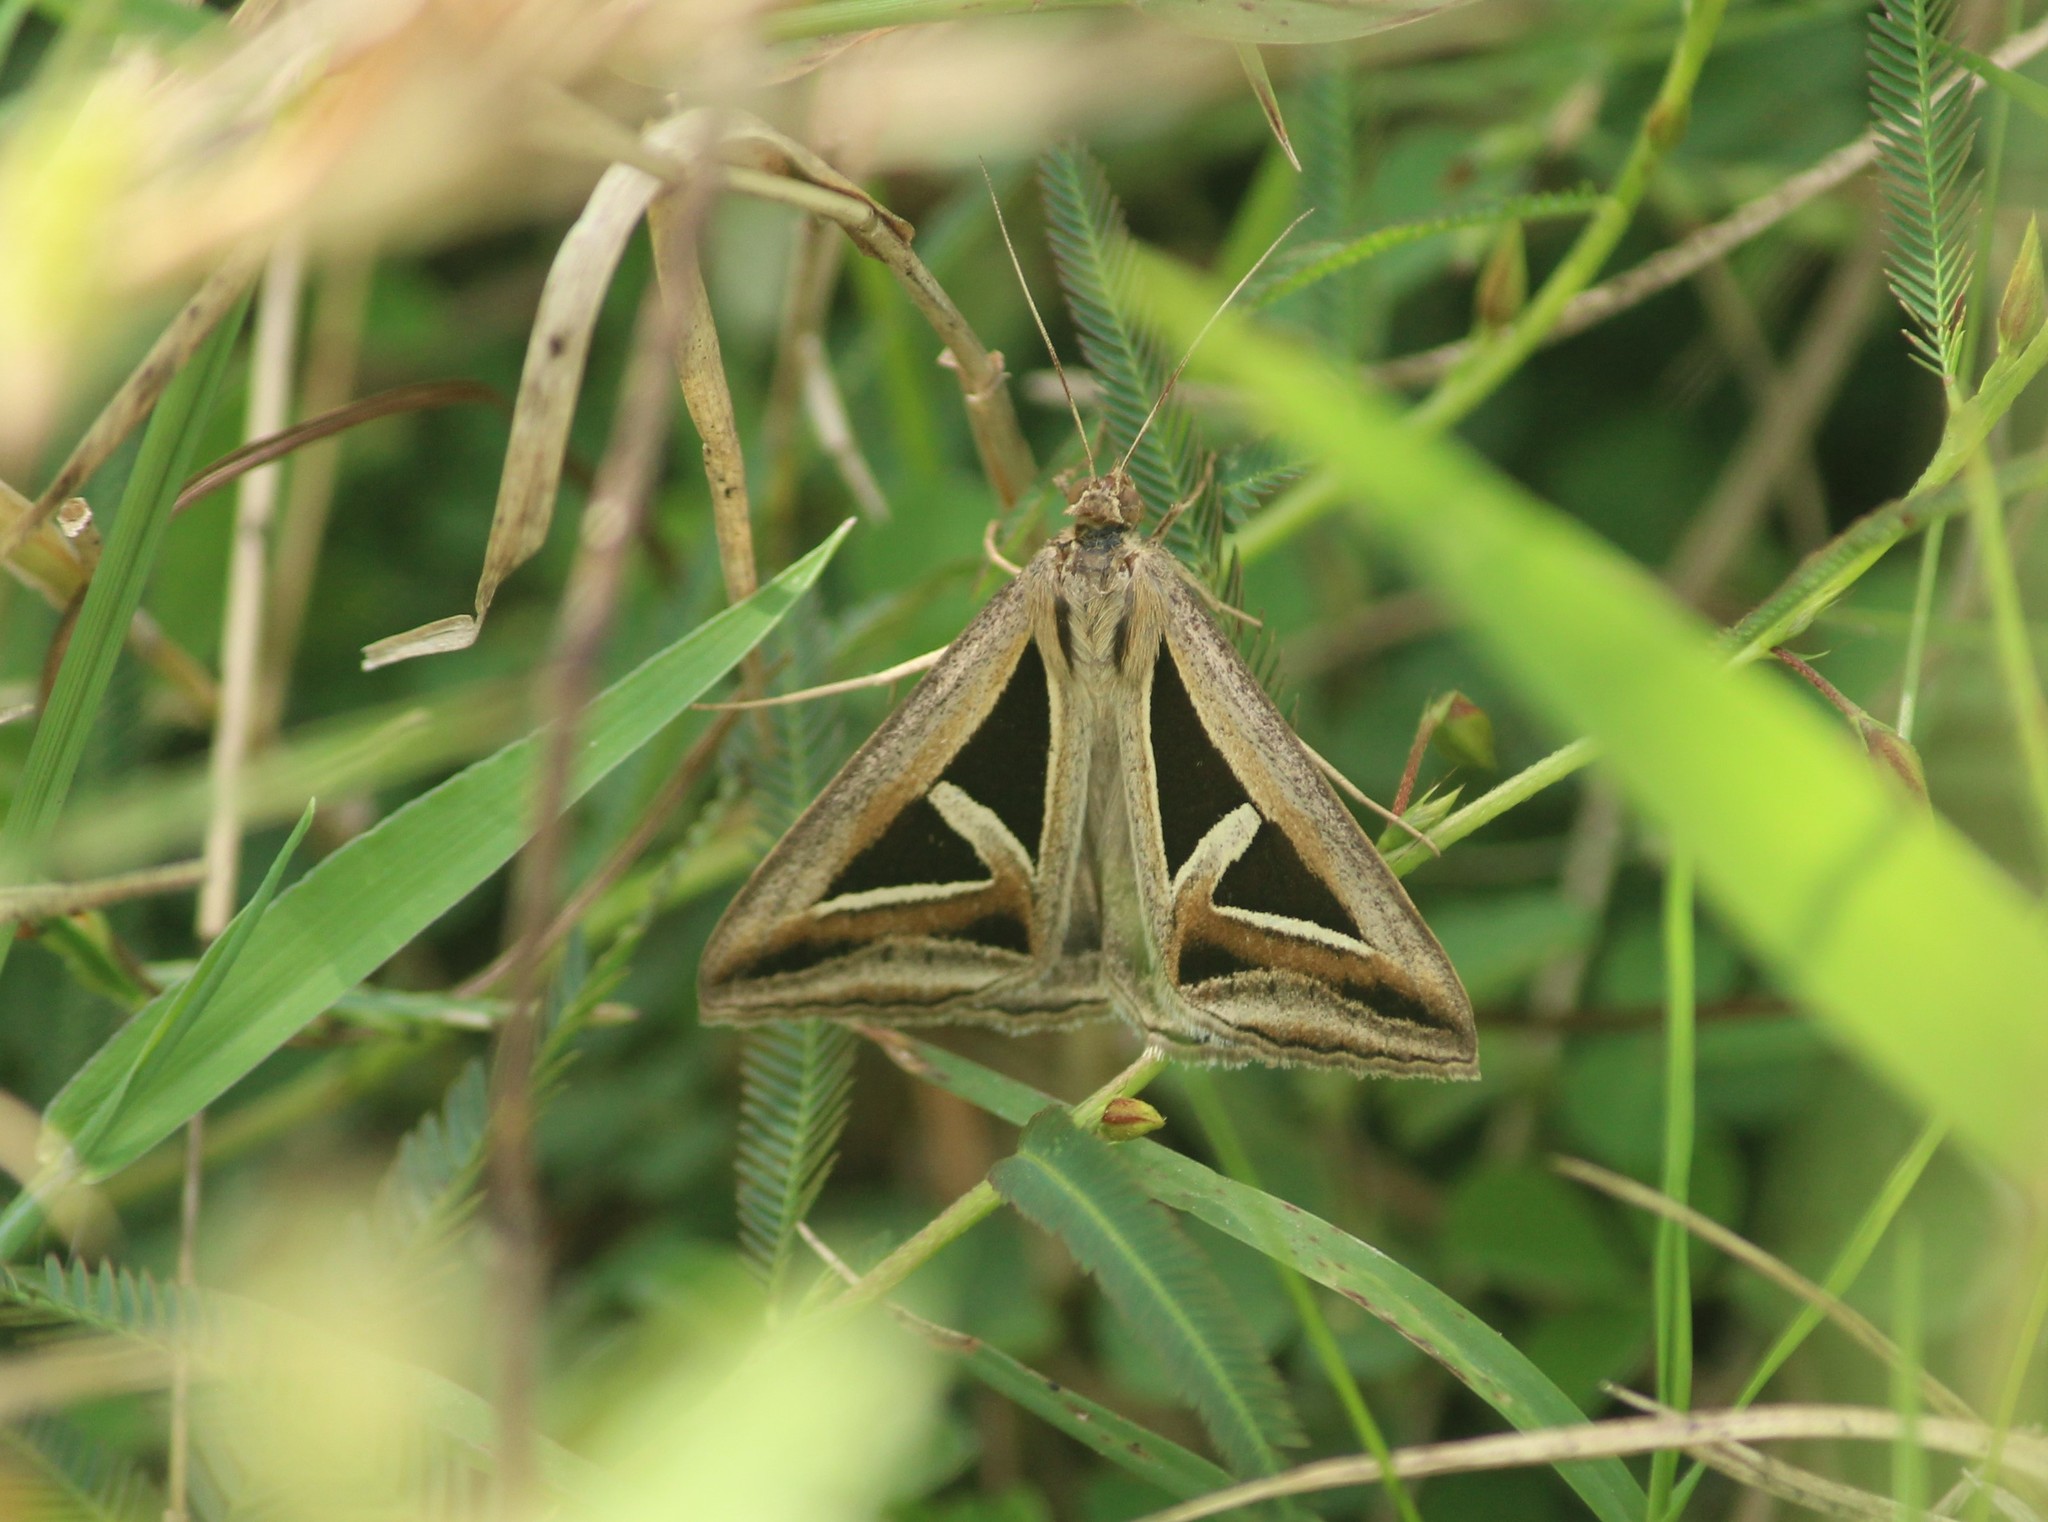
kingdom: Animalia
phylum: Arthropoda
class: Insecta
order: Lepidoptera
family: Erebidae
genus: Trigonodes
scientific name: Trigonodes hyppasia
